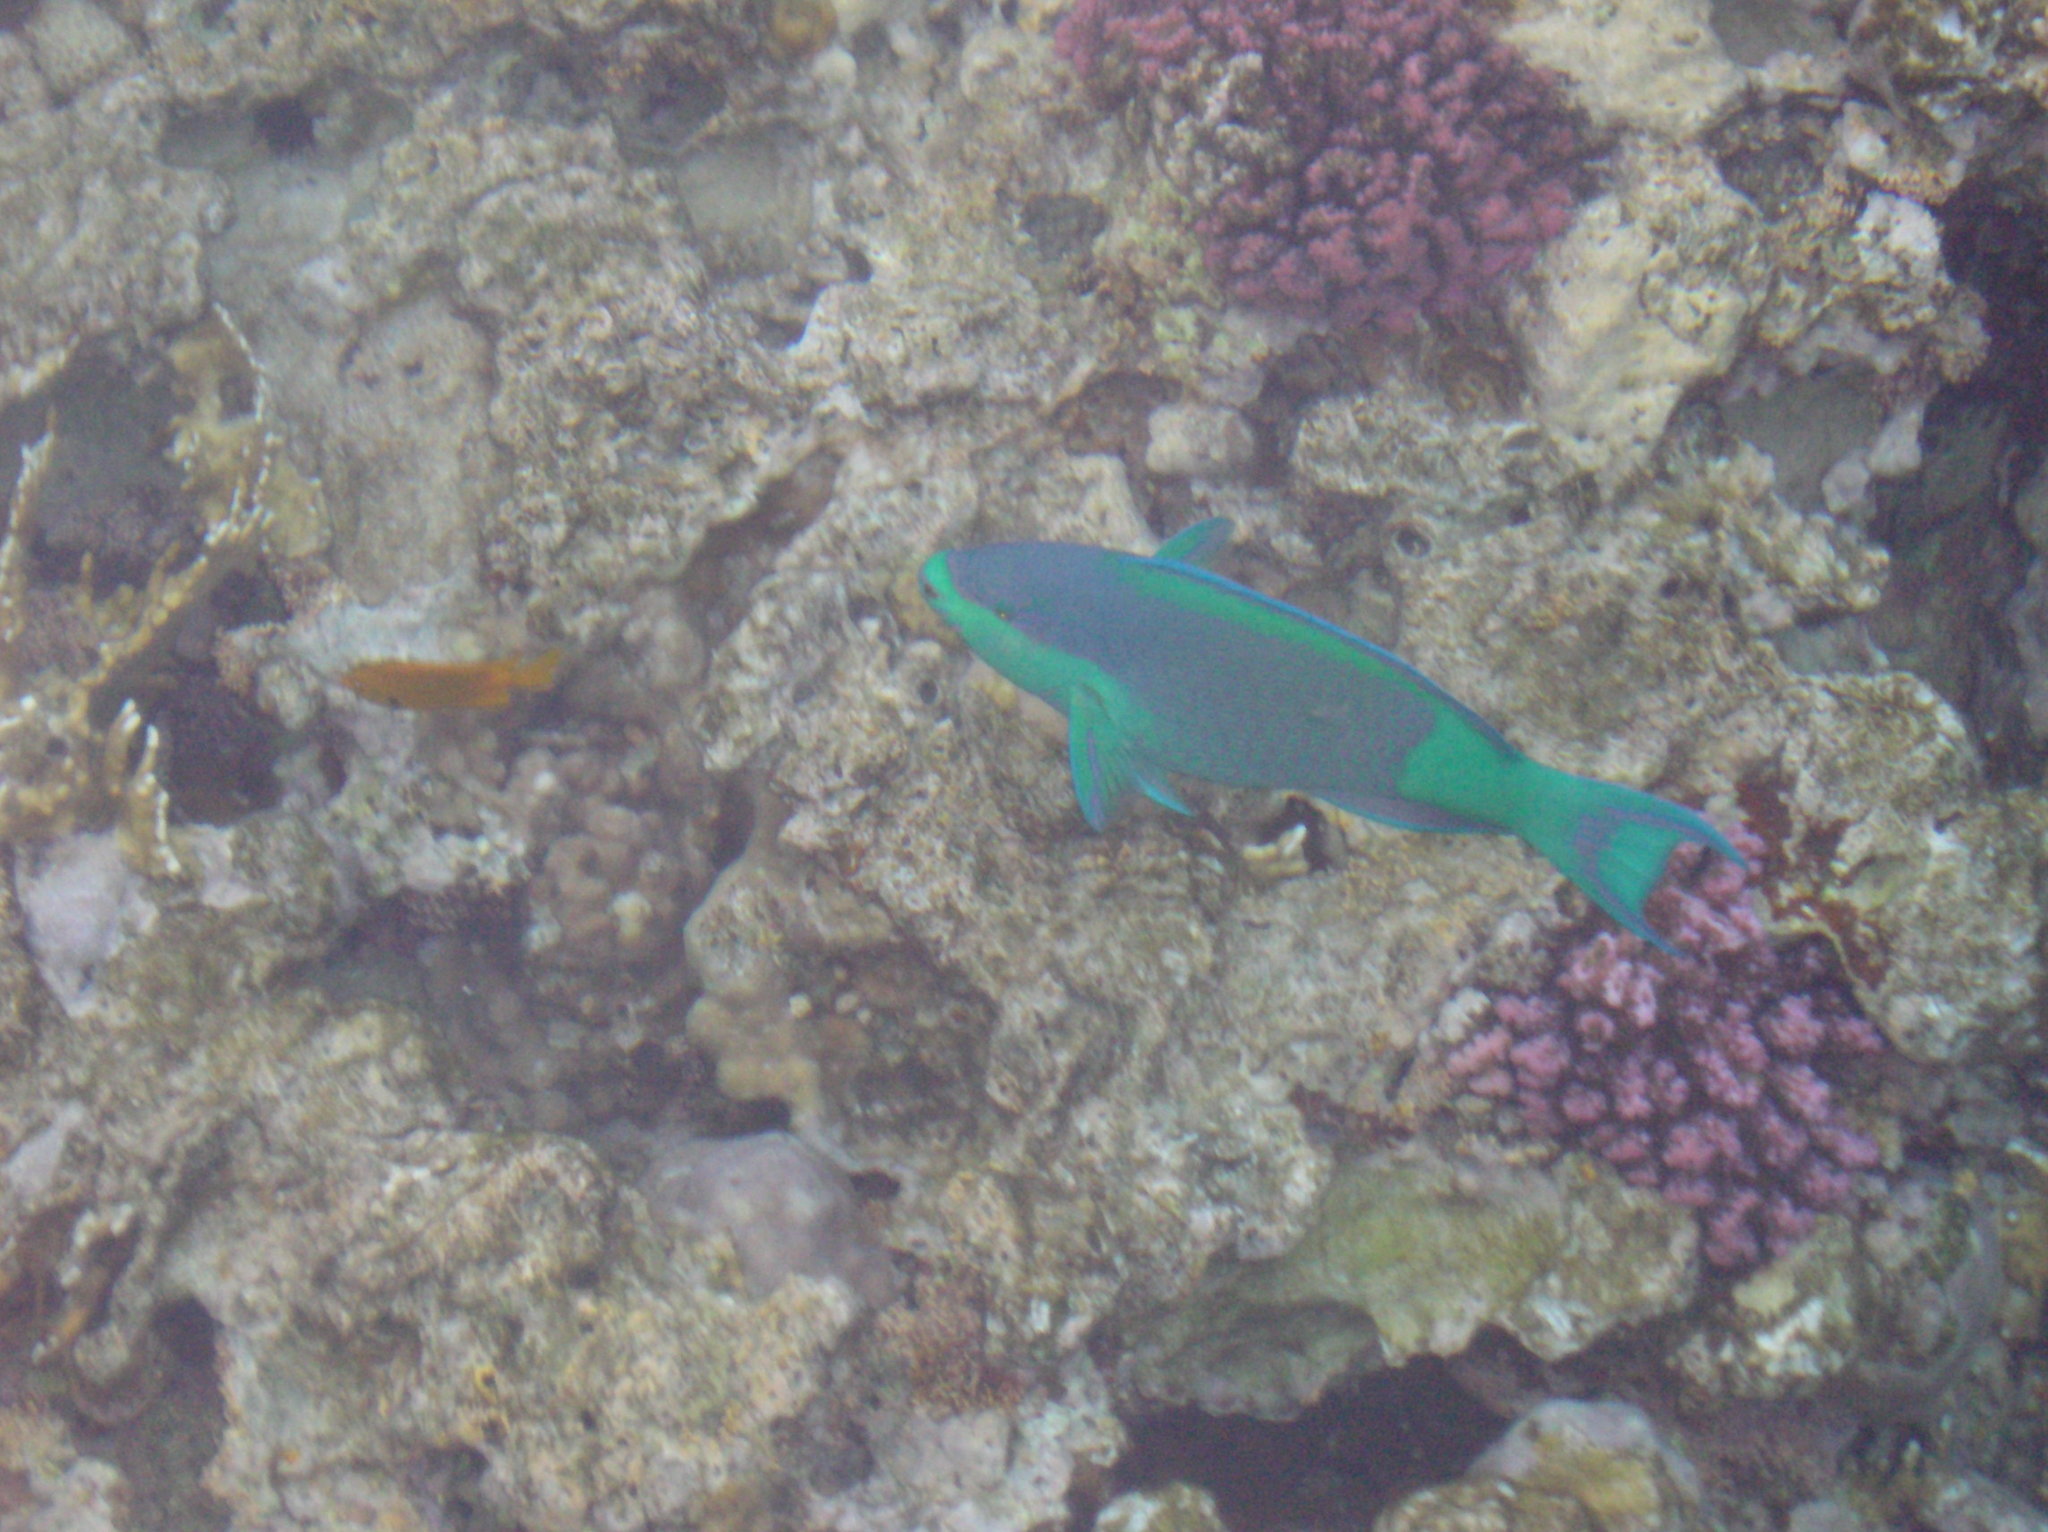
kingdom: Animalia
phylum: Chordata
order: Perciformes
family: Scaridae
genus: Scarus
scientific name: Scarus frenatus
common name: Bridled parrotfish
